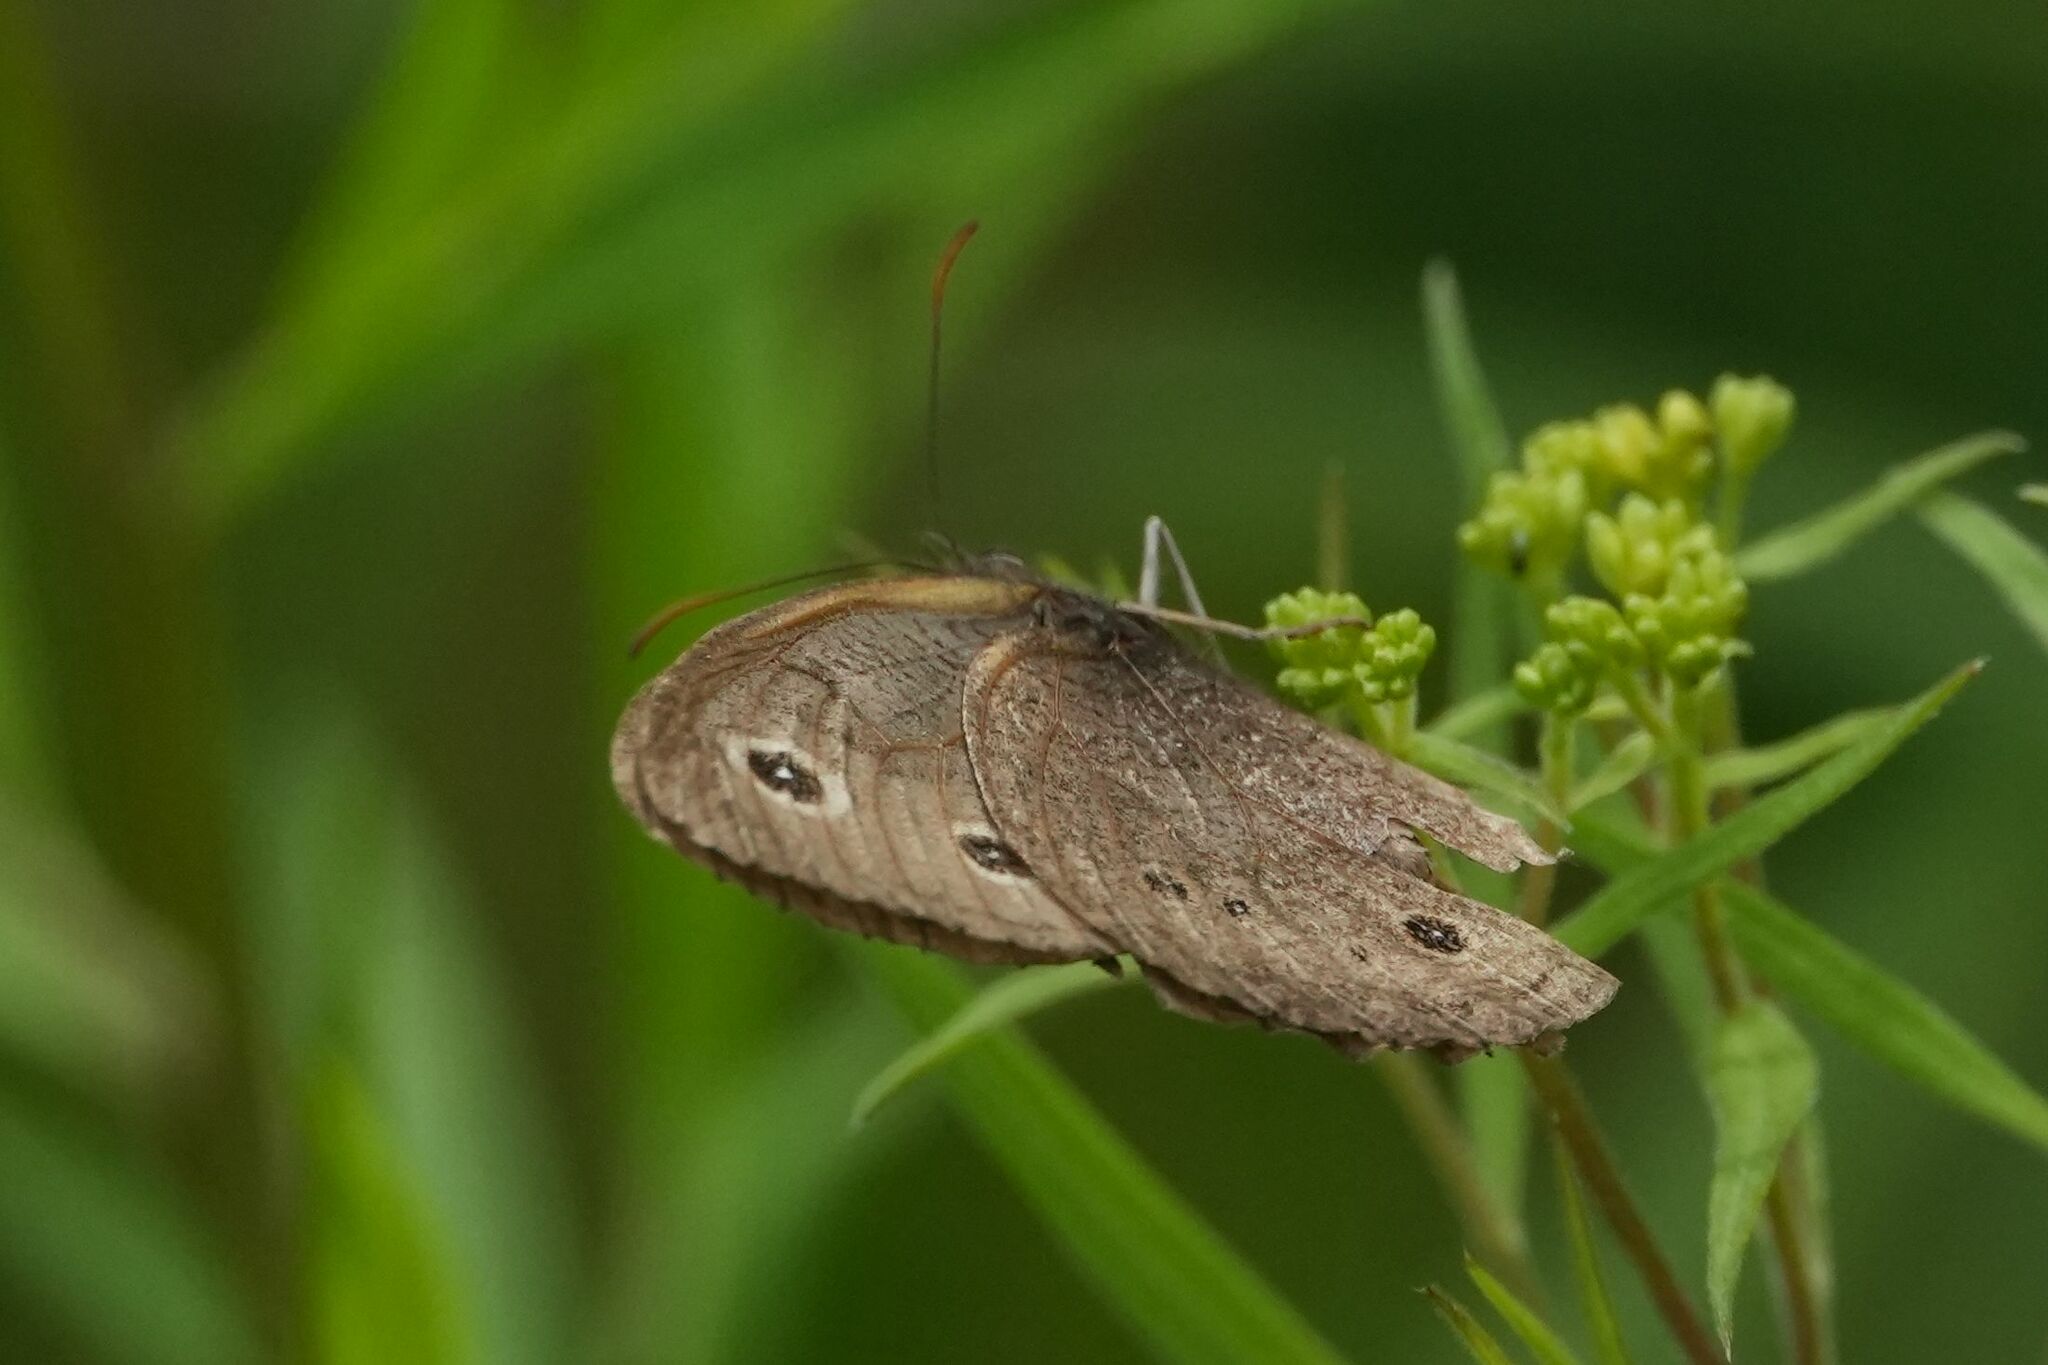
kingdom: Animalia
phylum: Arthropoda
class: Insecta
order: Lepidoptera
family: Nymphalidae
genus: Cercyonis
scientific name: Cercyonis pegala
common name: Common wood-nymph
